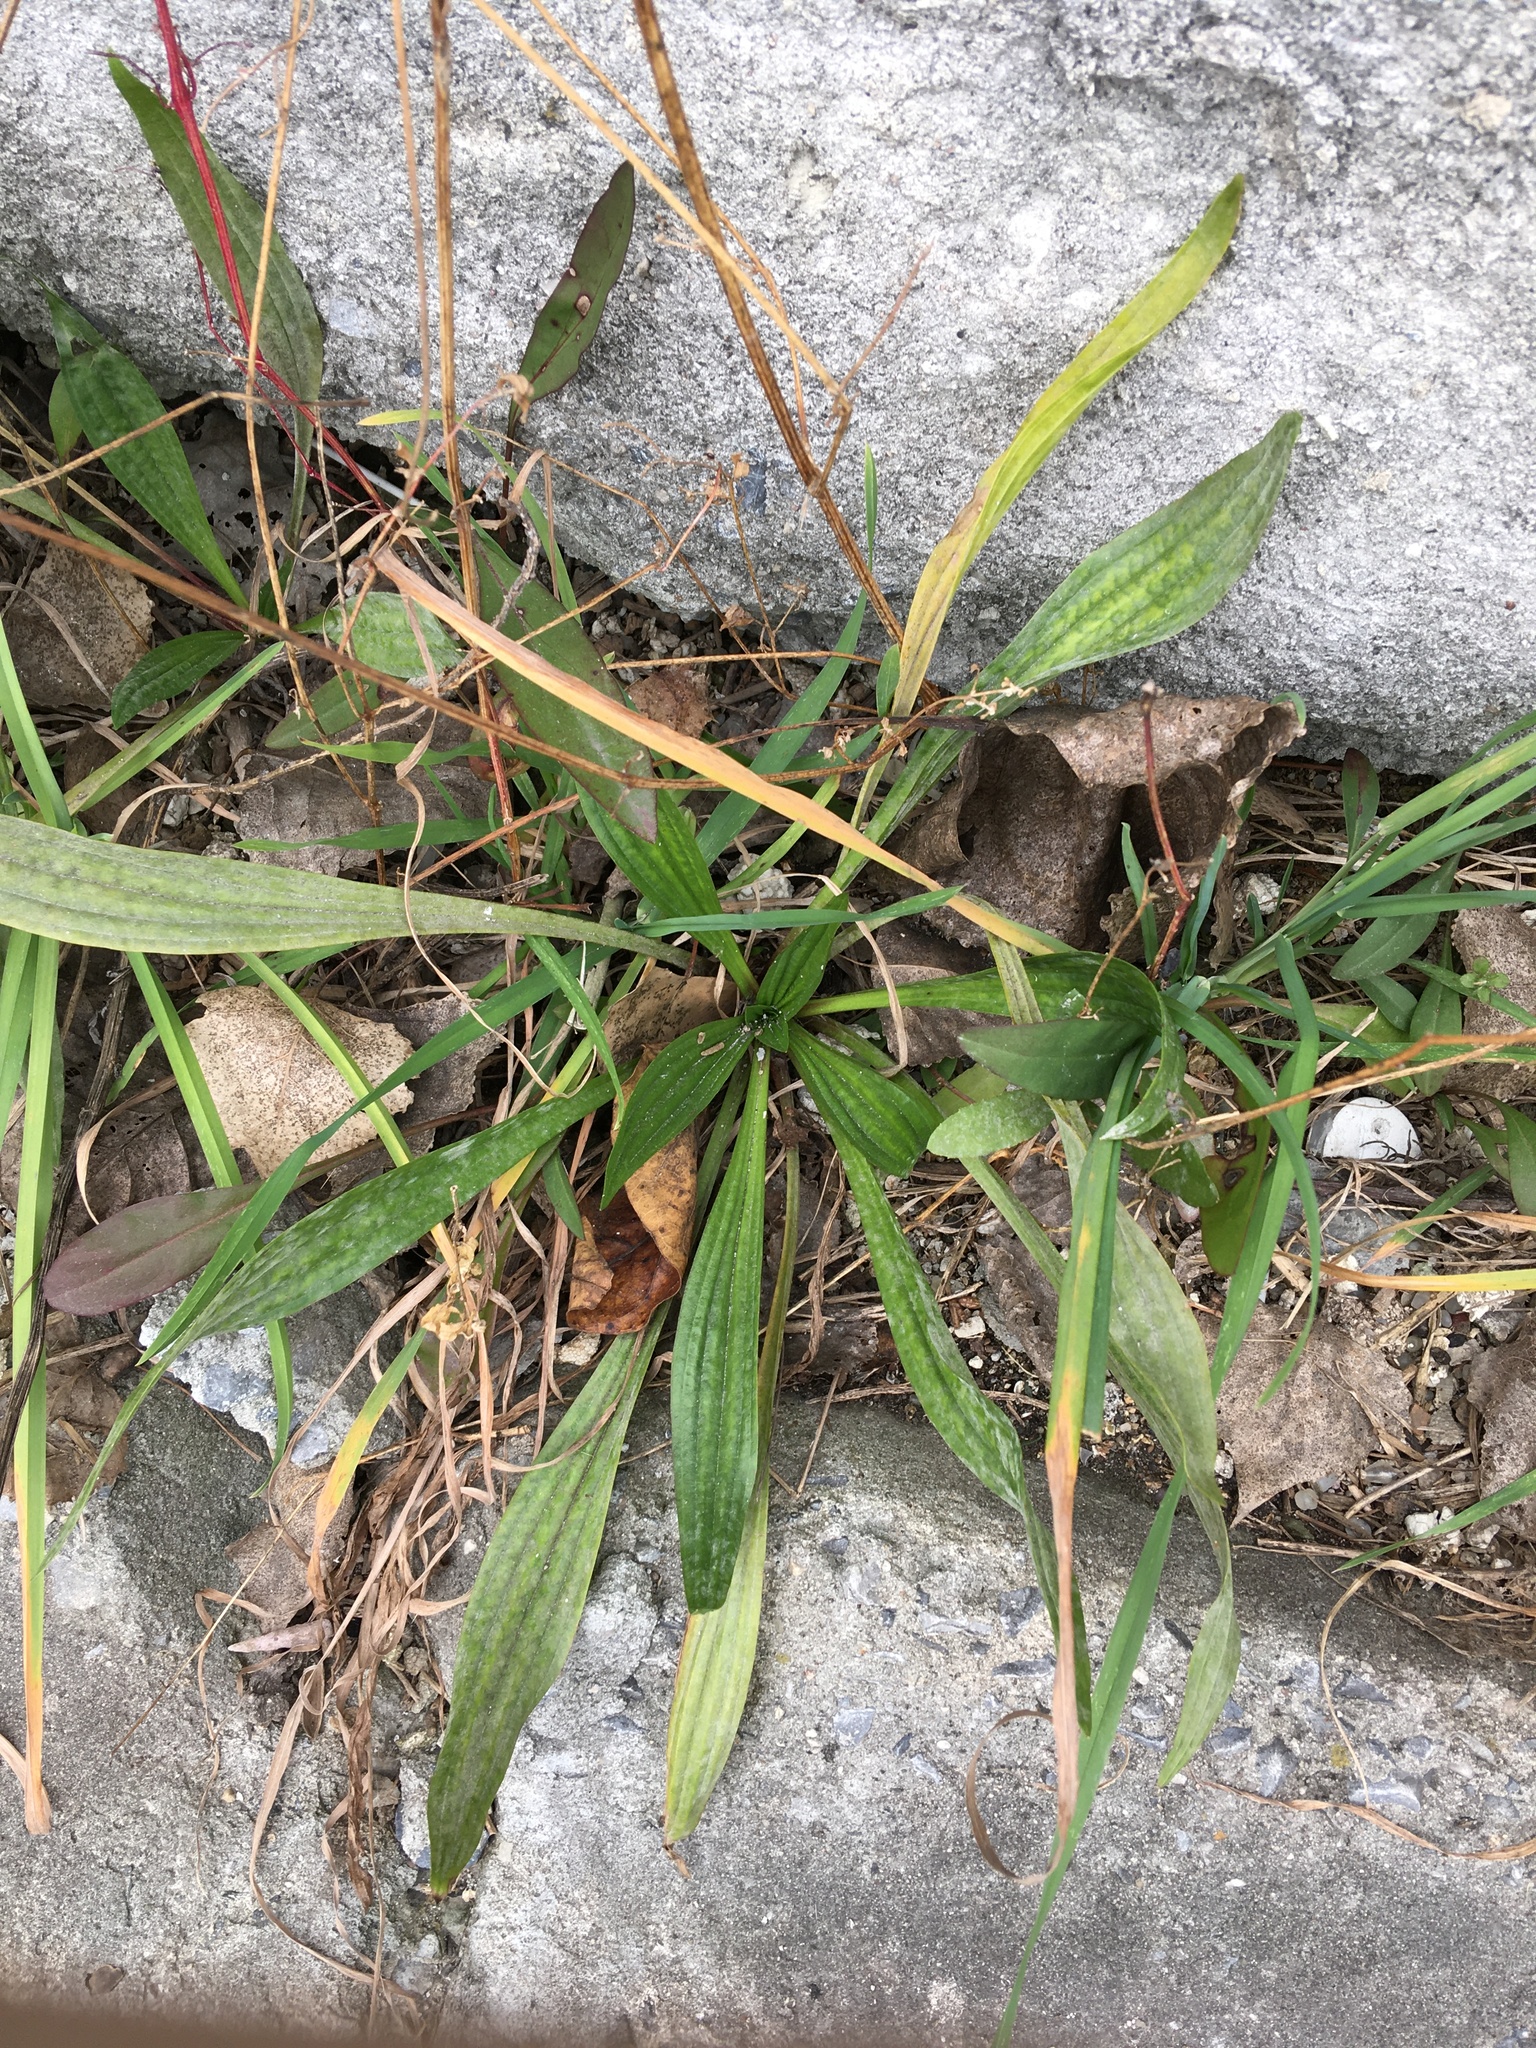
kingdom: Plantae
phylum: Tracheophyta
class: Magnoliopsida
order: Lamiales
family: Plantaginaceae
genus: Plantago
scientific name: Plantago lanceolata
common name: Ribwort plantain
